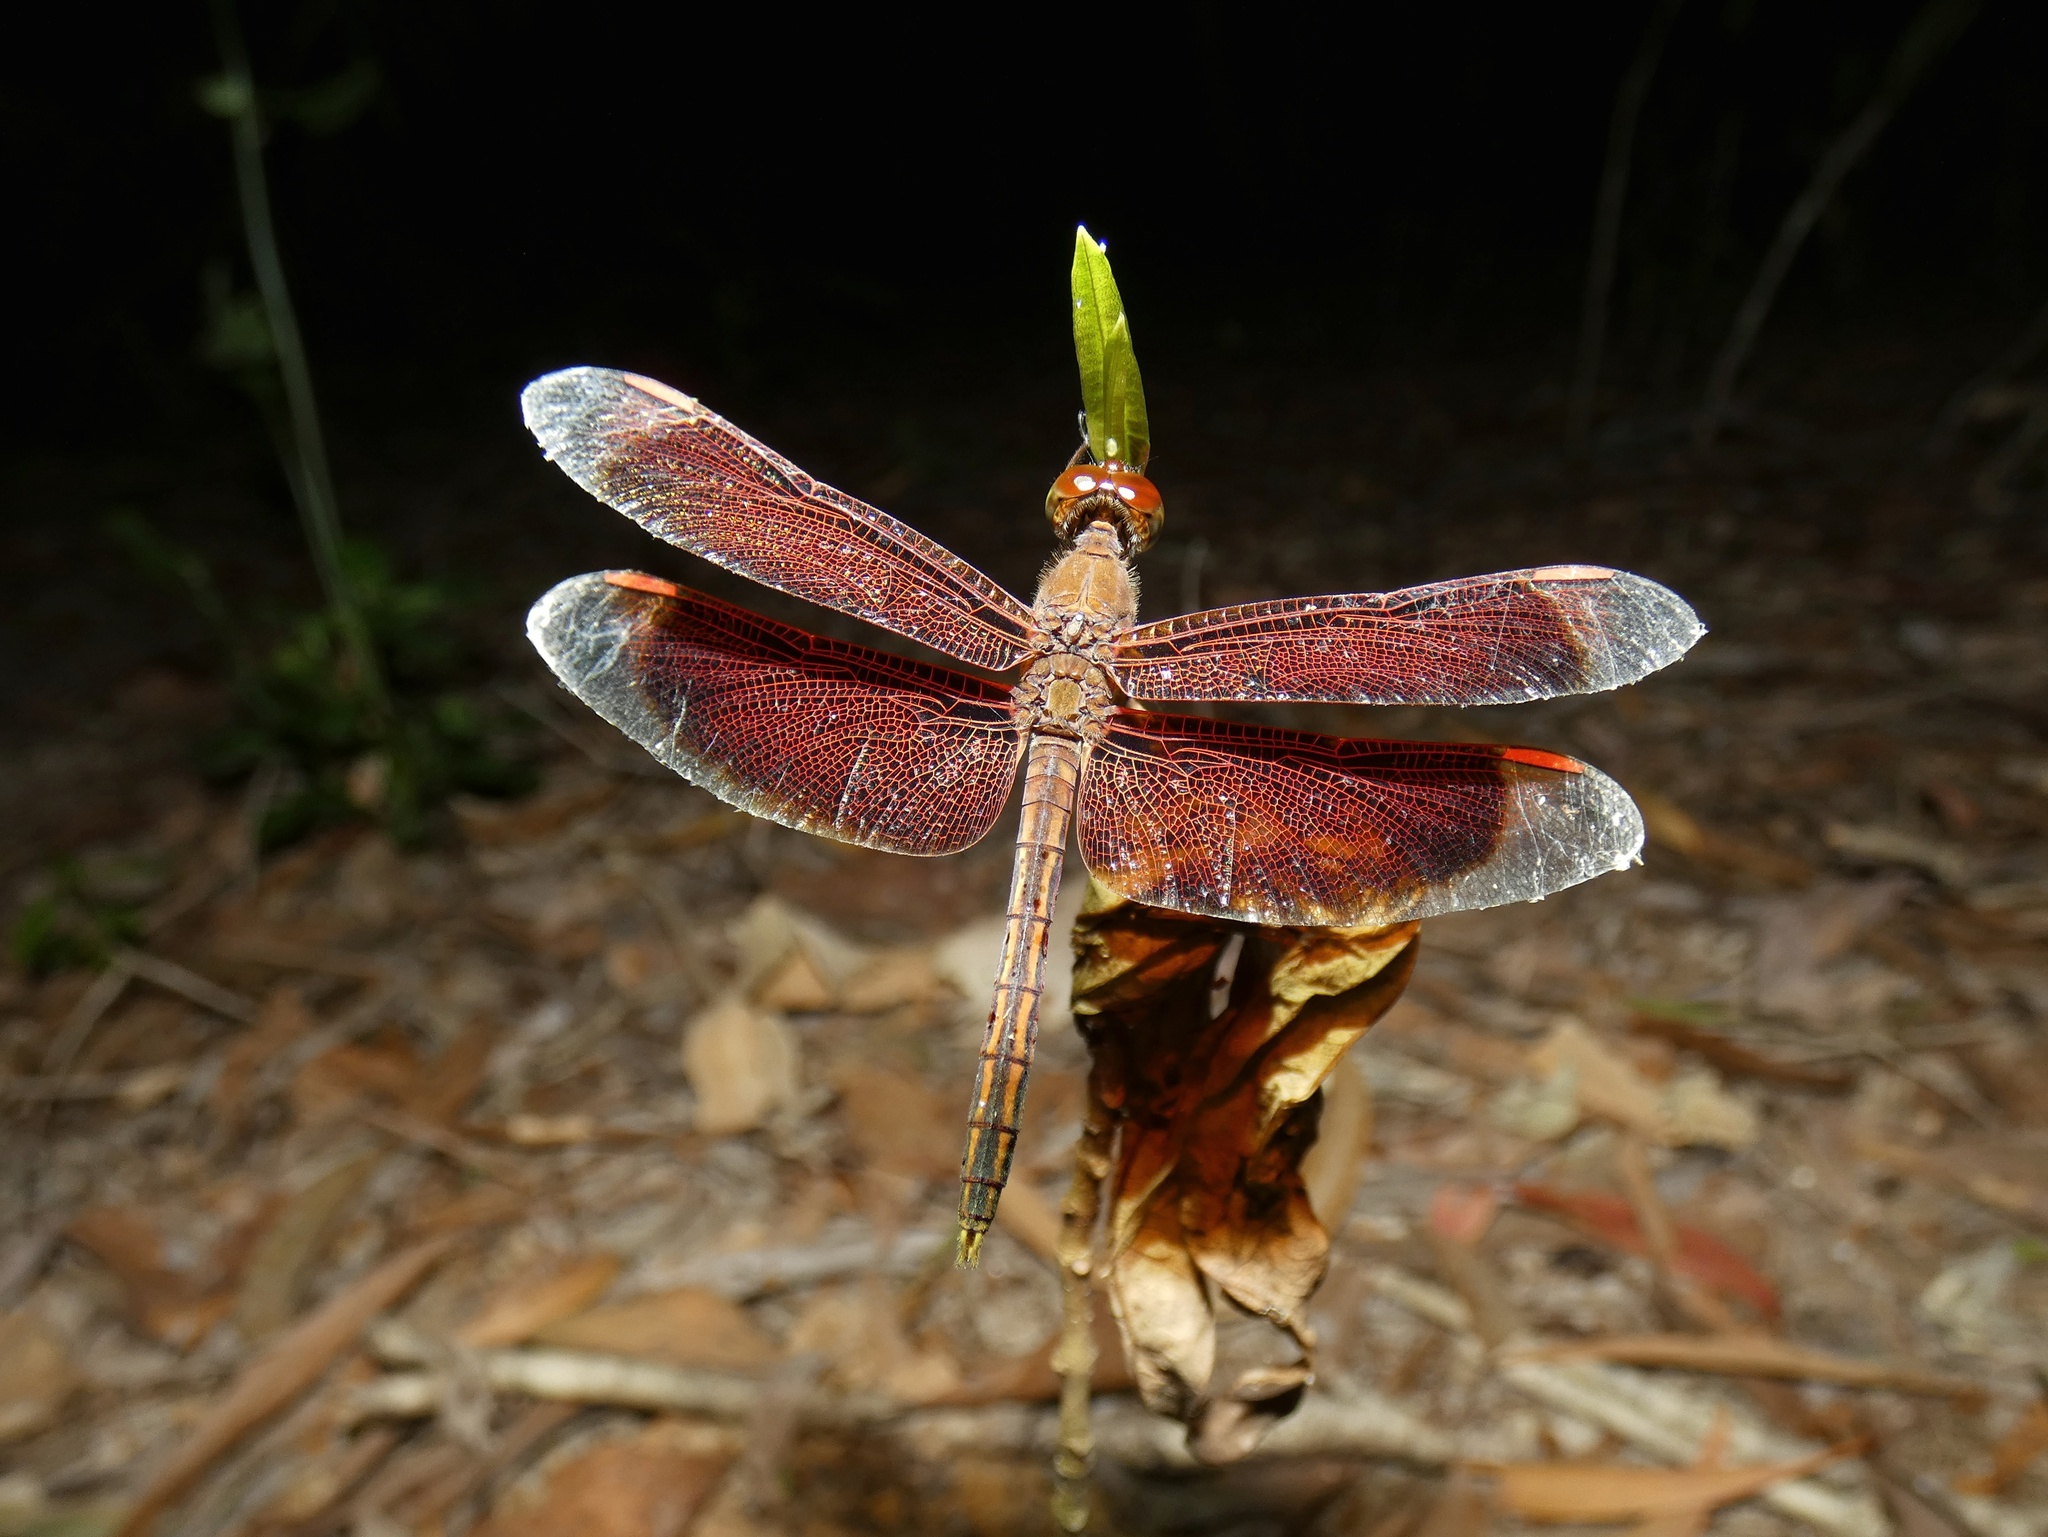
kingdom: Animalia
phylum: Arthropoda
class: Insecta
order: Odonata
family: Libellulidae
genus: Neurothemis
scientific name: Neurothemis stigmatizans
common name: Painted grasshawk
